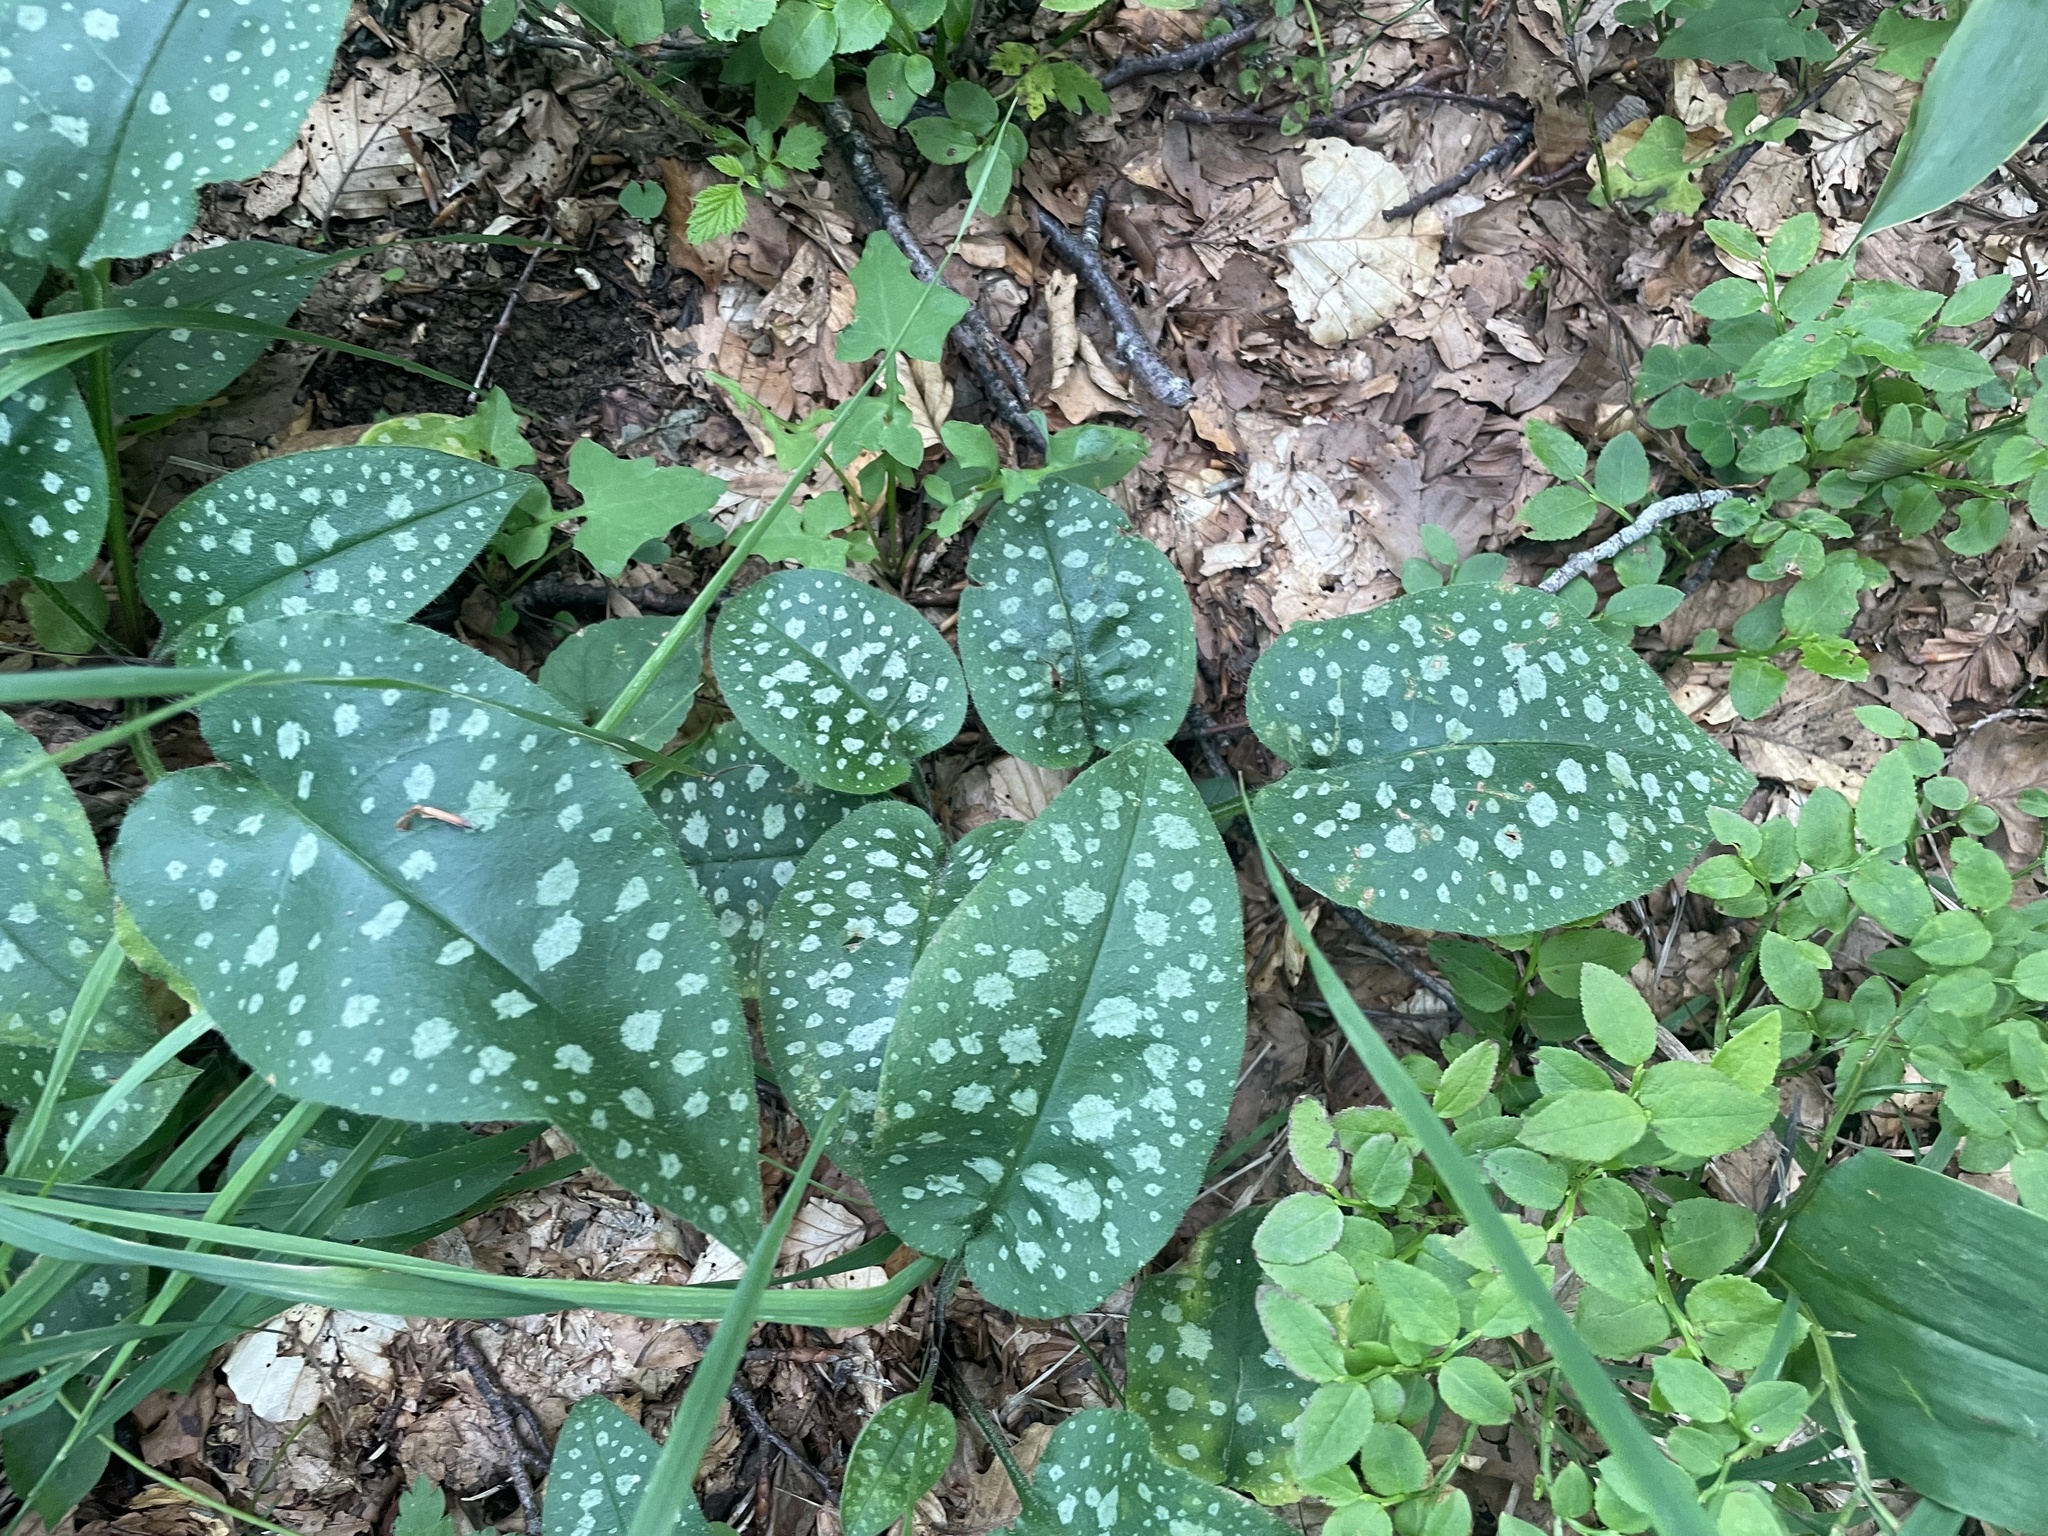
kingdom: Plantae
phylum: Tracheophyta
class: Magnoliopsida
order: Boraginales
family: Boraginaceae
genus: Pulmonaria
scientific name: Pulmonaria officinalis
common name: Lungwort
